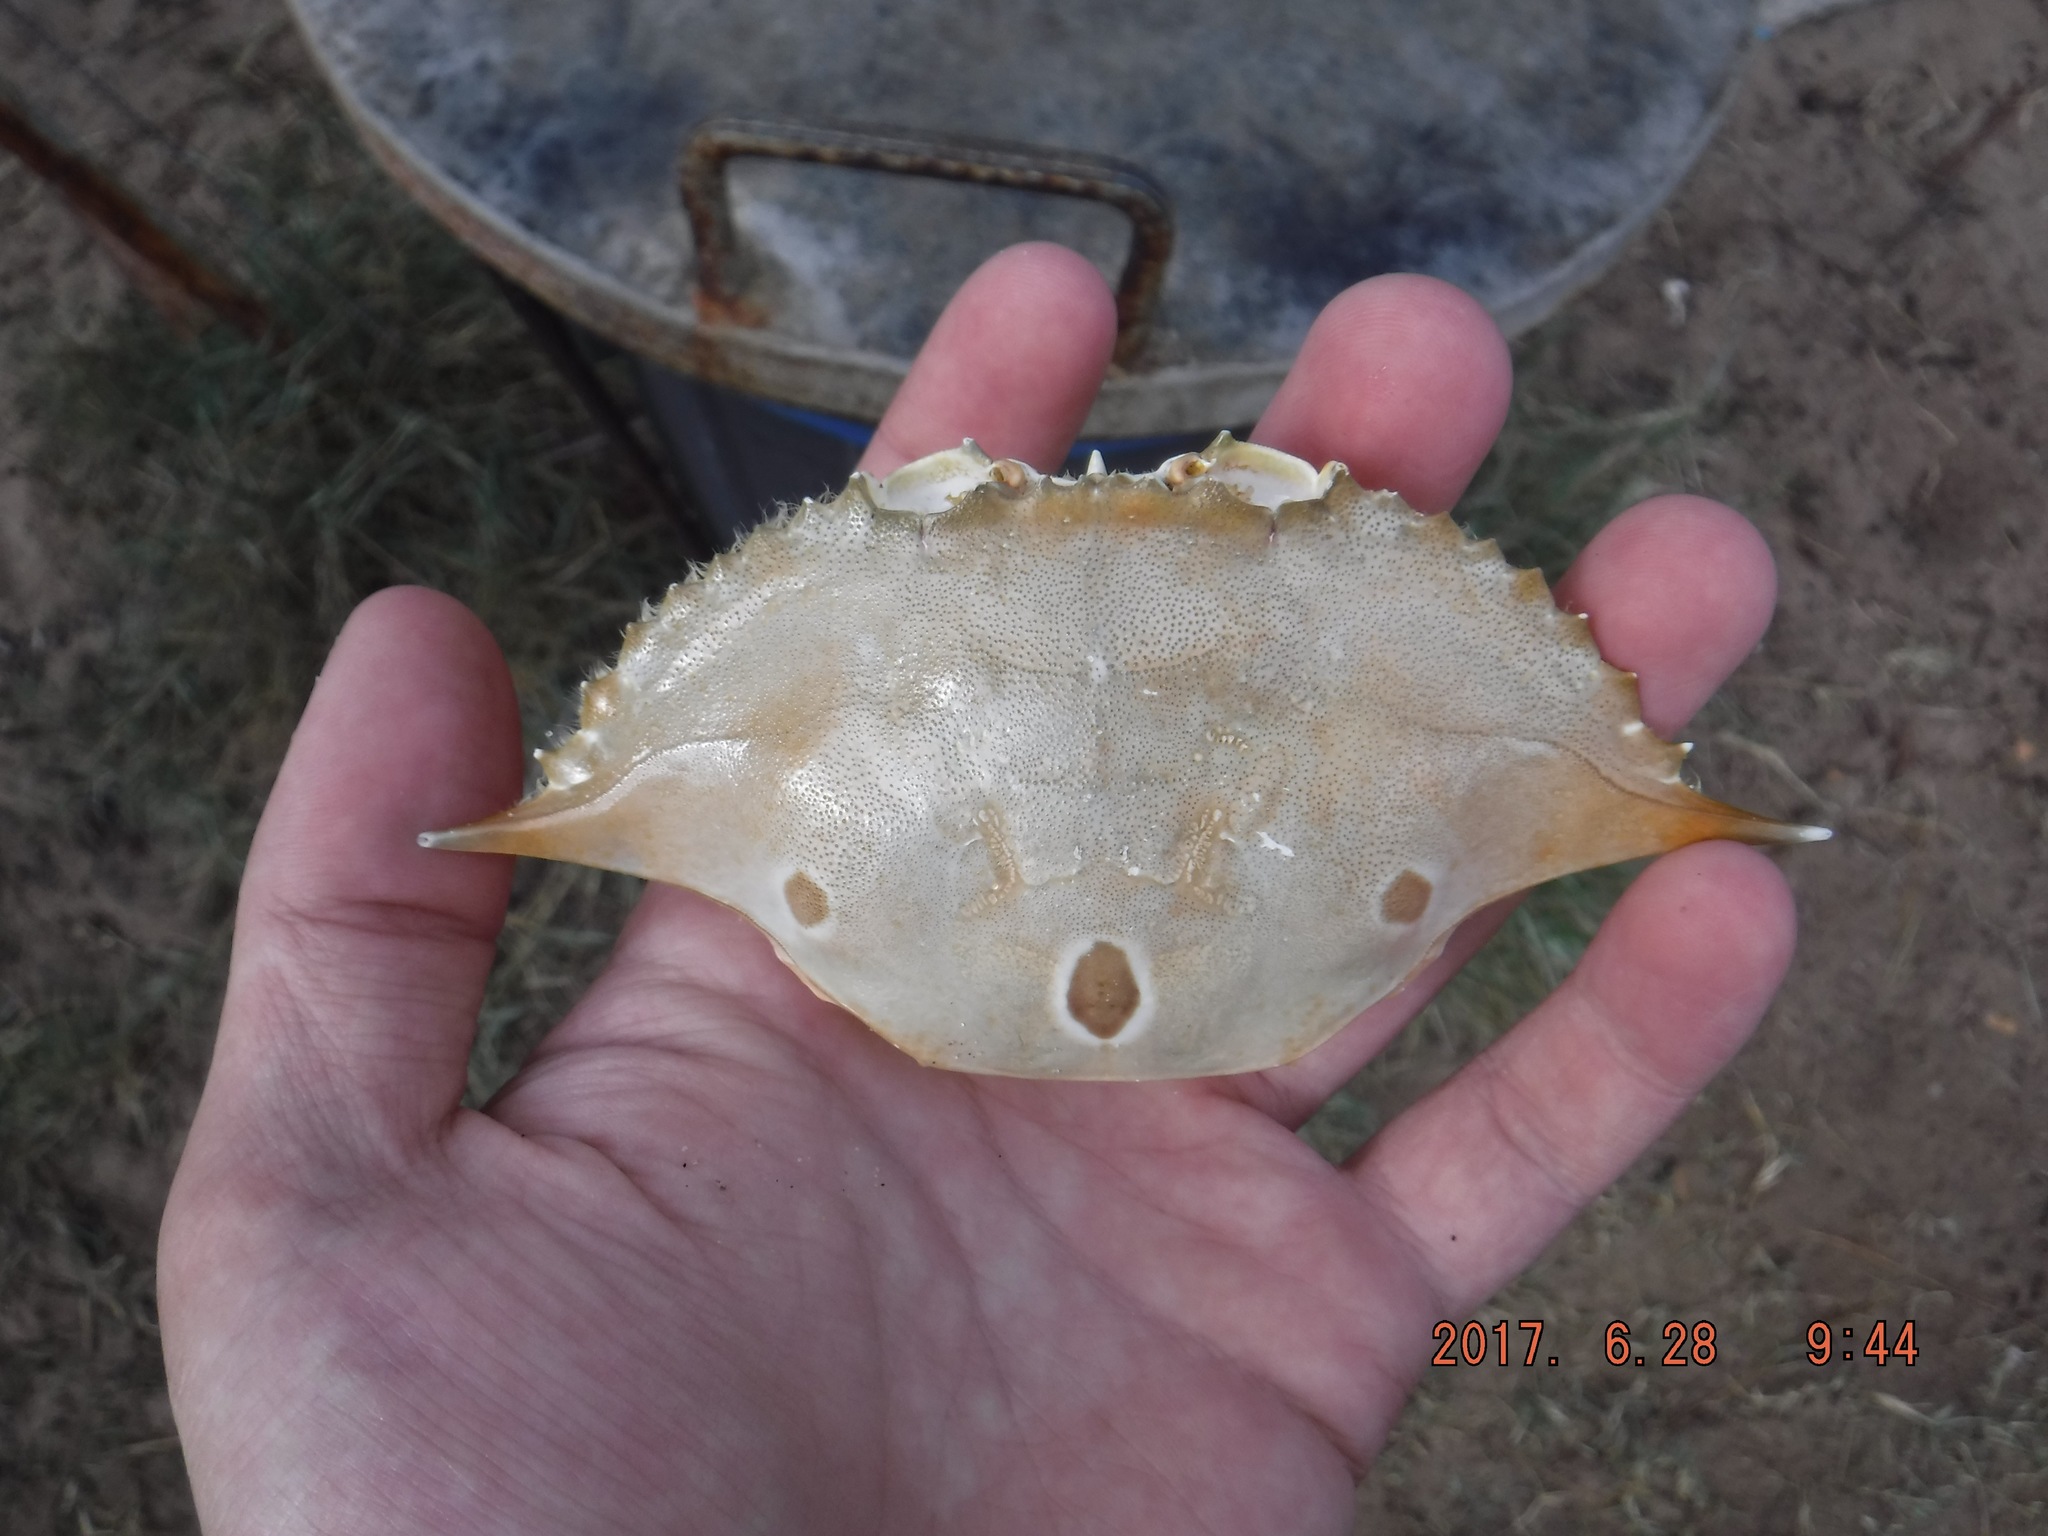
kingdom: Animalia
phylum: Arthropoda
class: Malacostraca
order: Decapoda
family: Portunidae
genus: Portunus
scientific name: Portunus sanguinolentus
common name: Blood-spotted swimming crab
